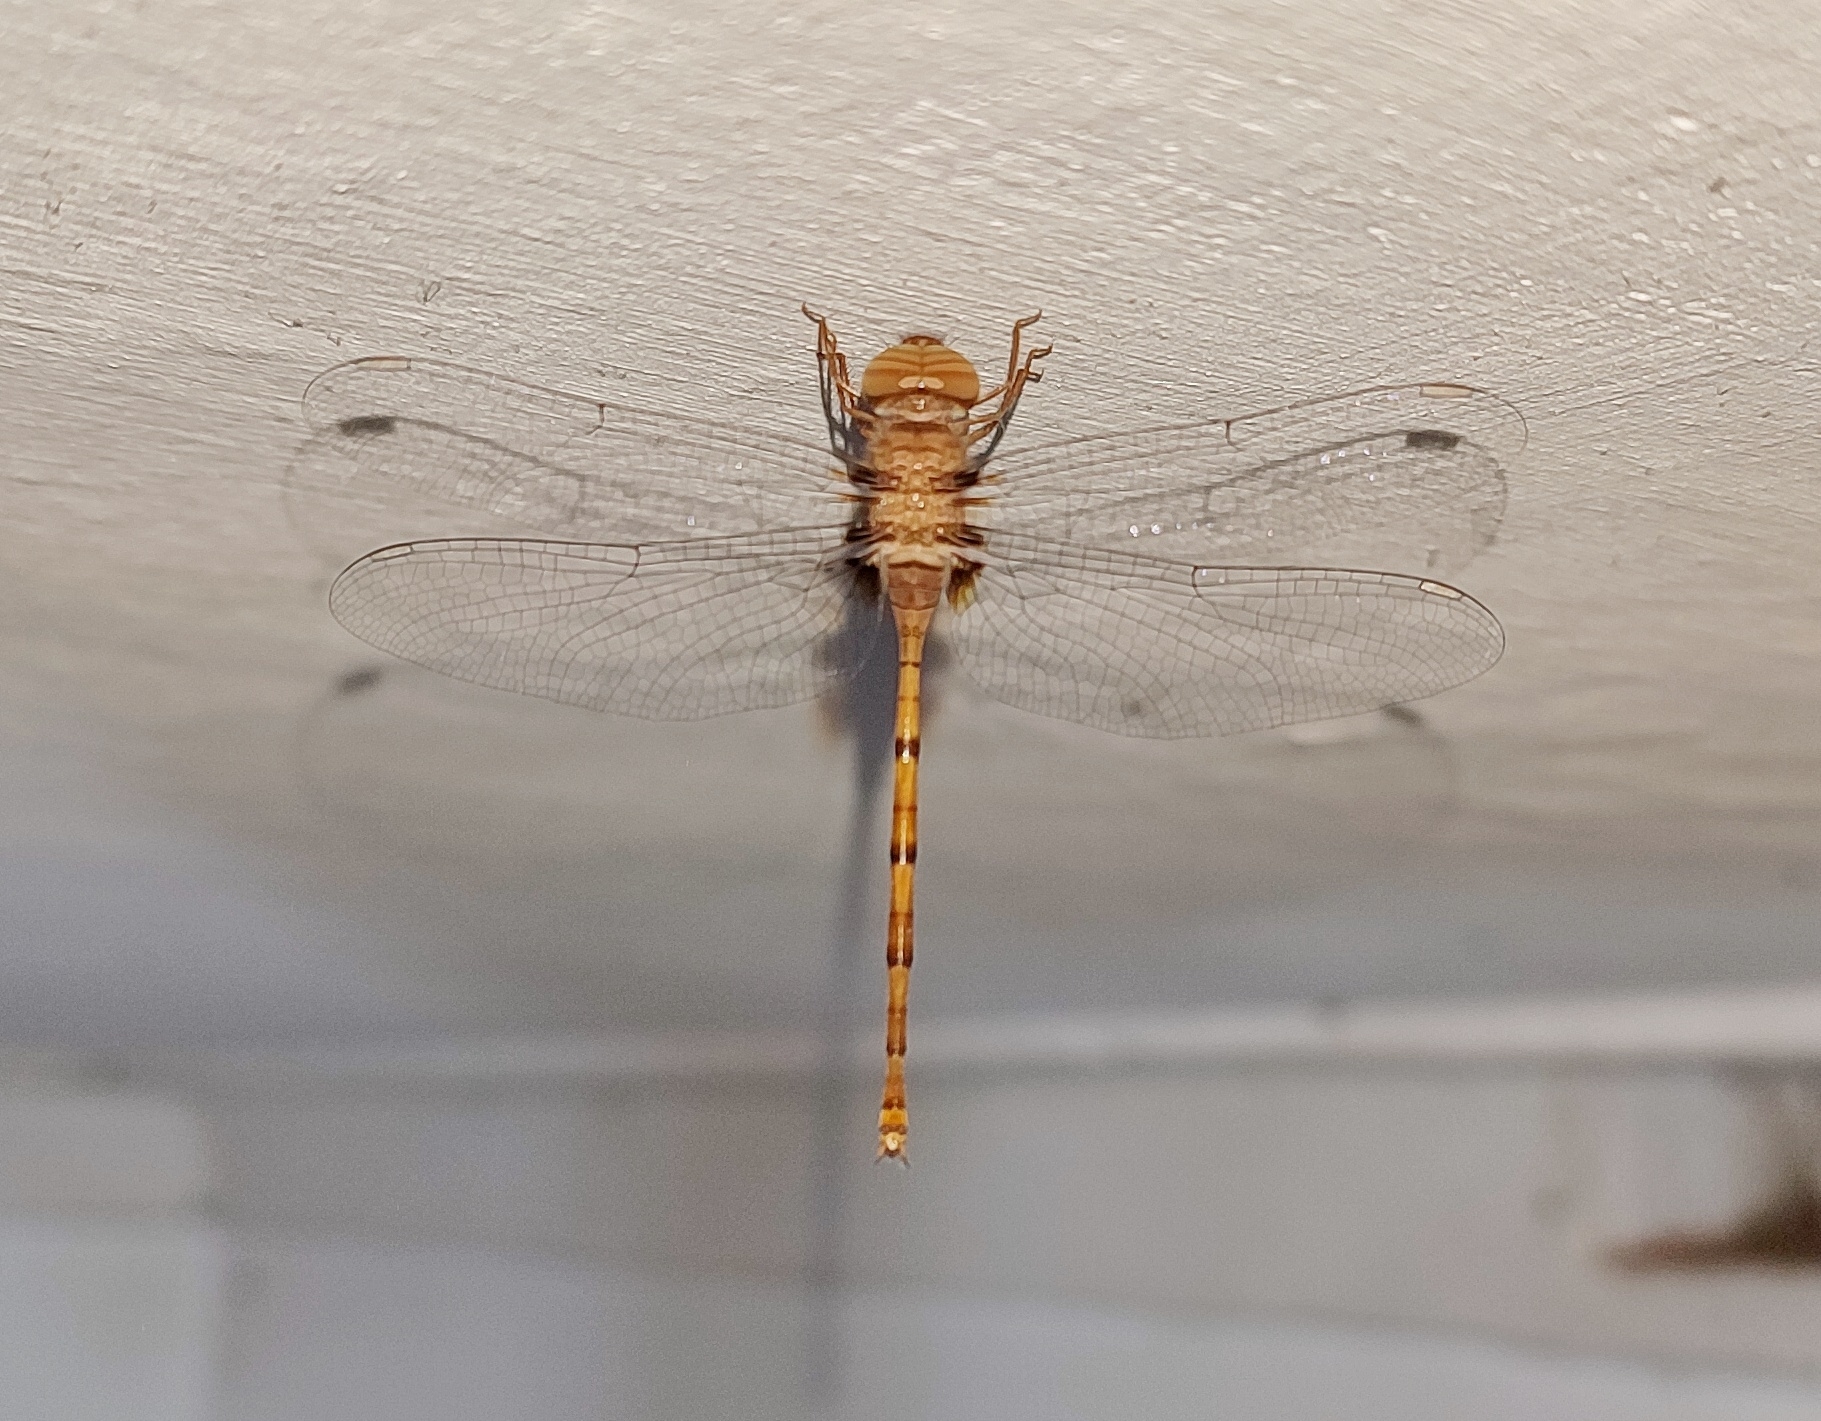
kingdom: Animalia
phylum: Arthropoda
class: Insecta
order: Odonata
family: Libellulidae
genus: Zyxomma
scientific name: Zyxomma petiolatum
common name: Dingy dusk-darter
